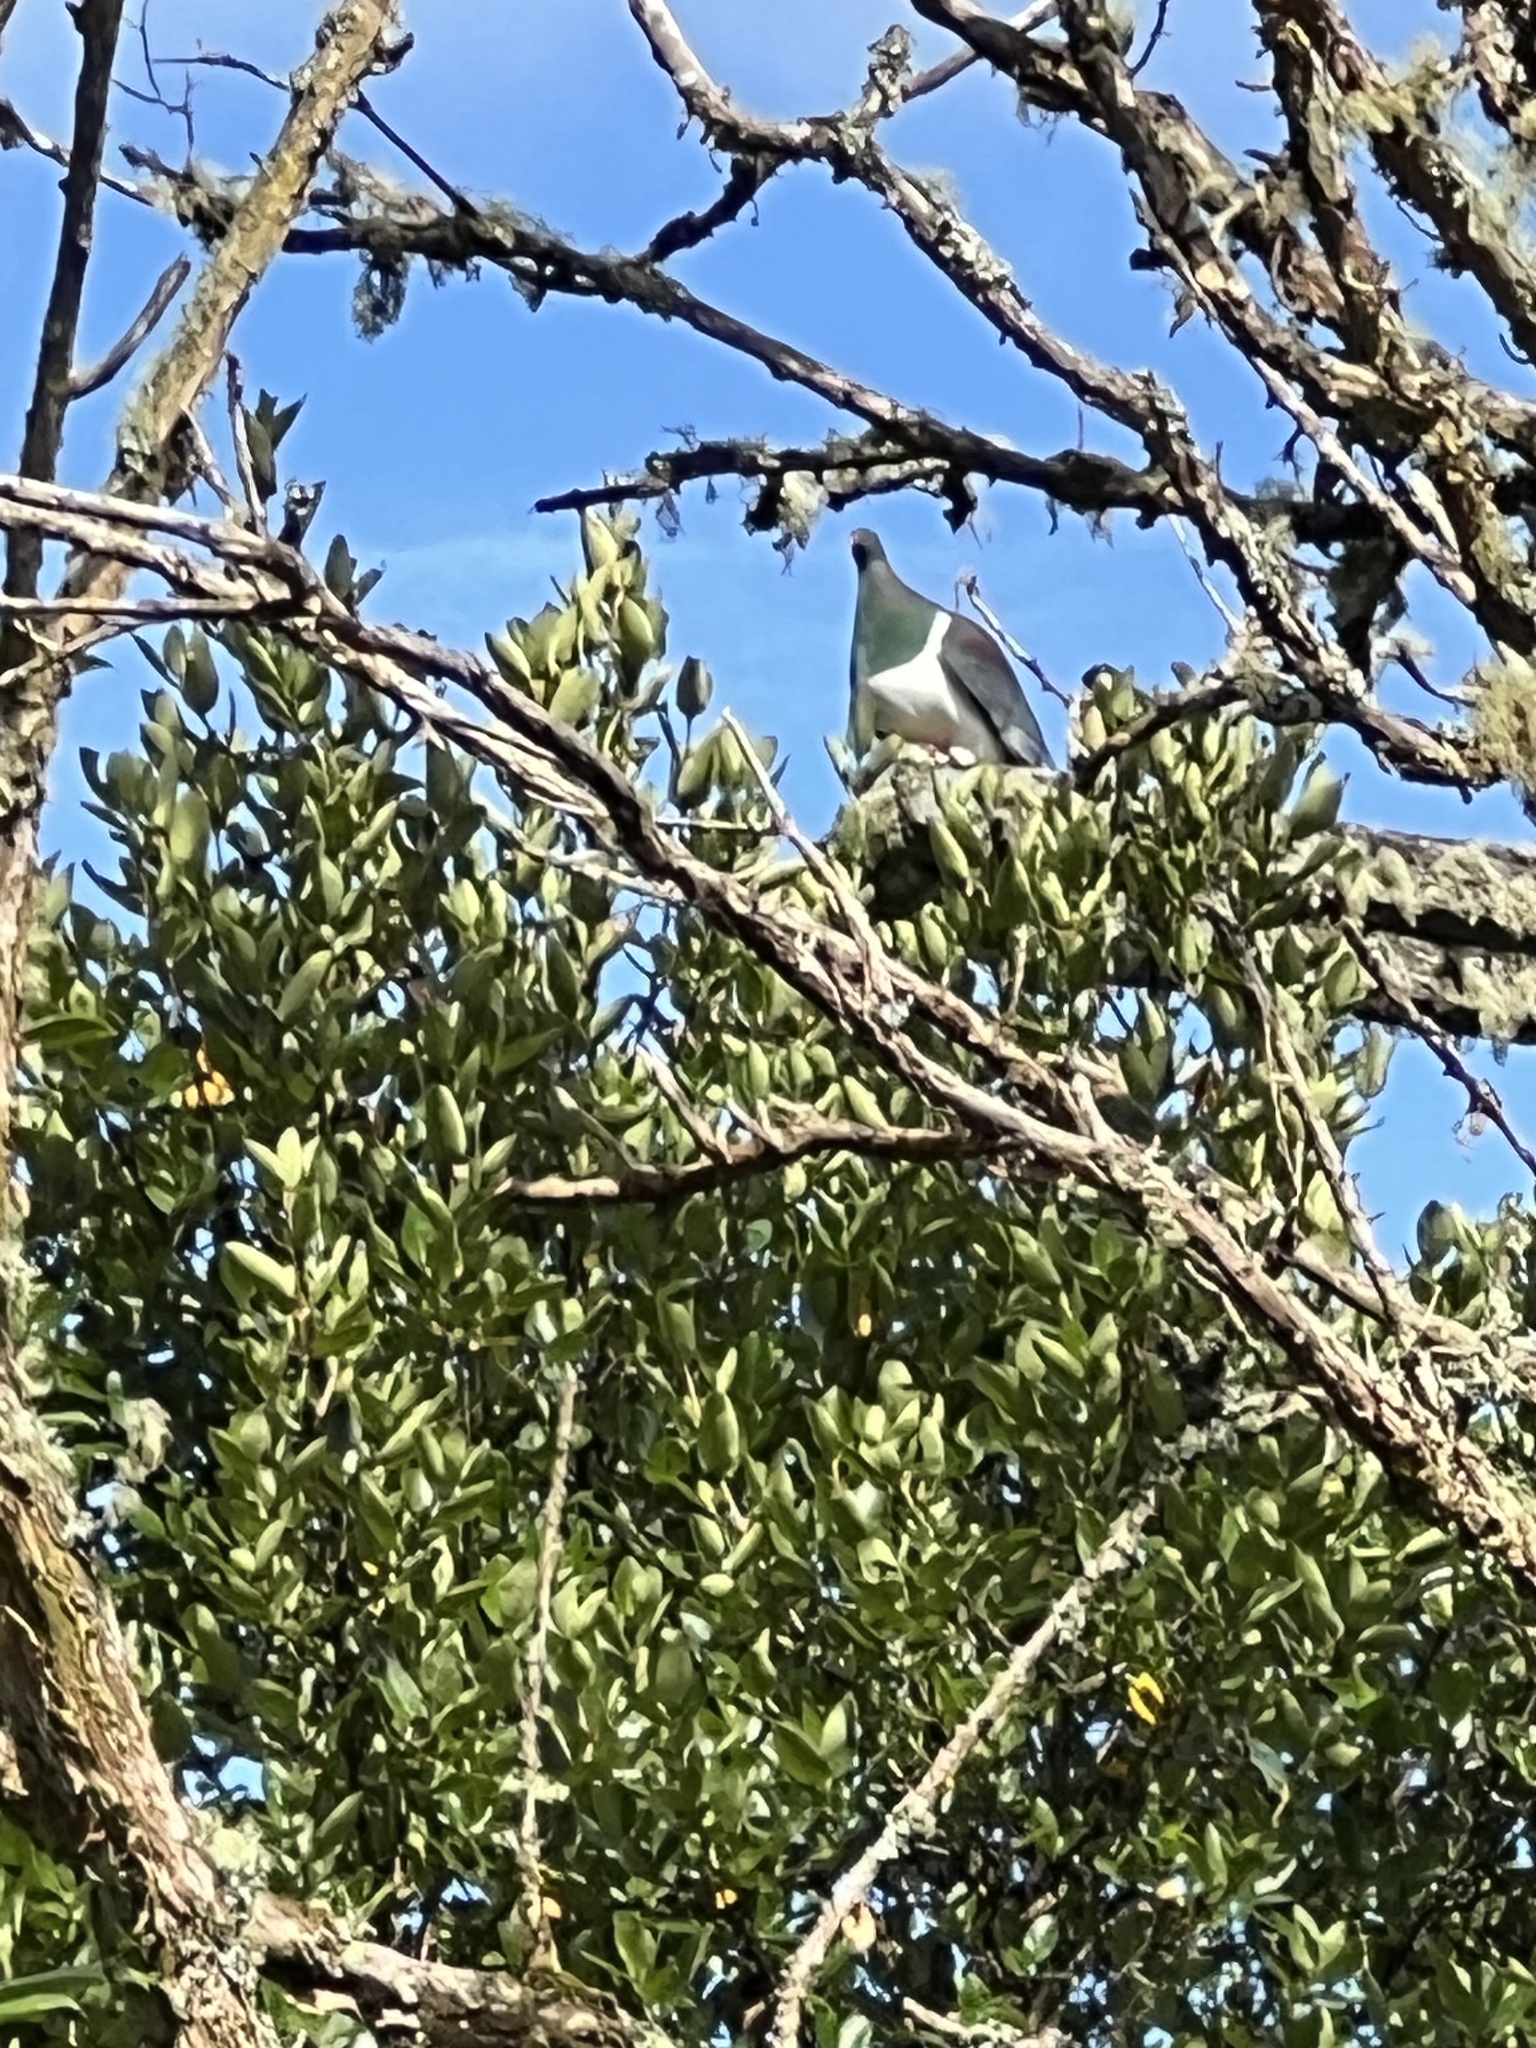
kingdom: Animalia
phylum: Chordata
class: Aves
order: Columbiformes
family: Columbidae
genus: Hemiphaga
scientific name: Hemiphaga novaeseelandiae
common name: New zealand pigeon
